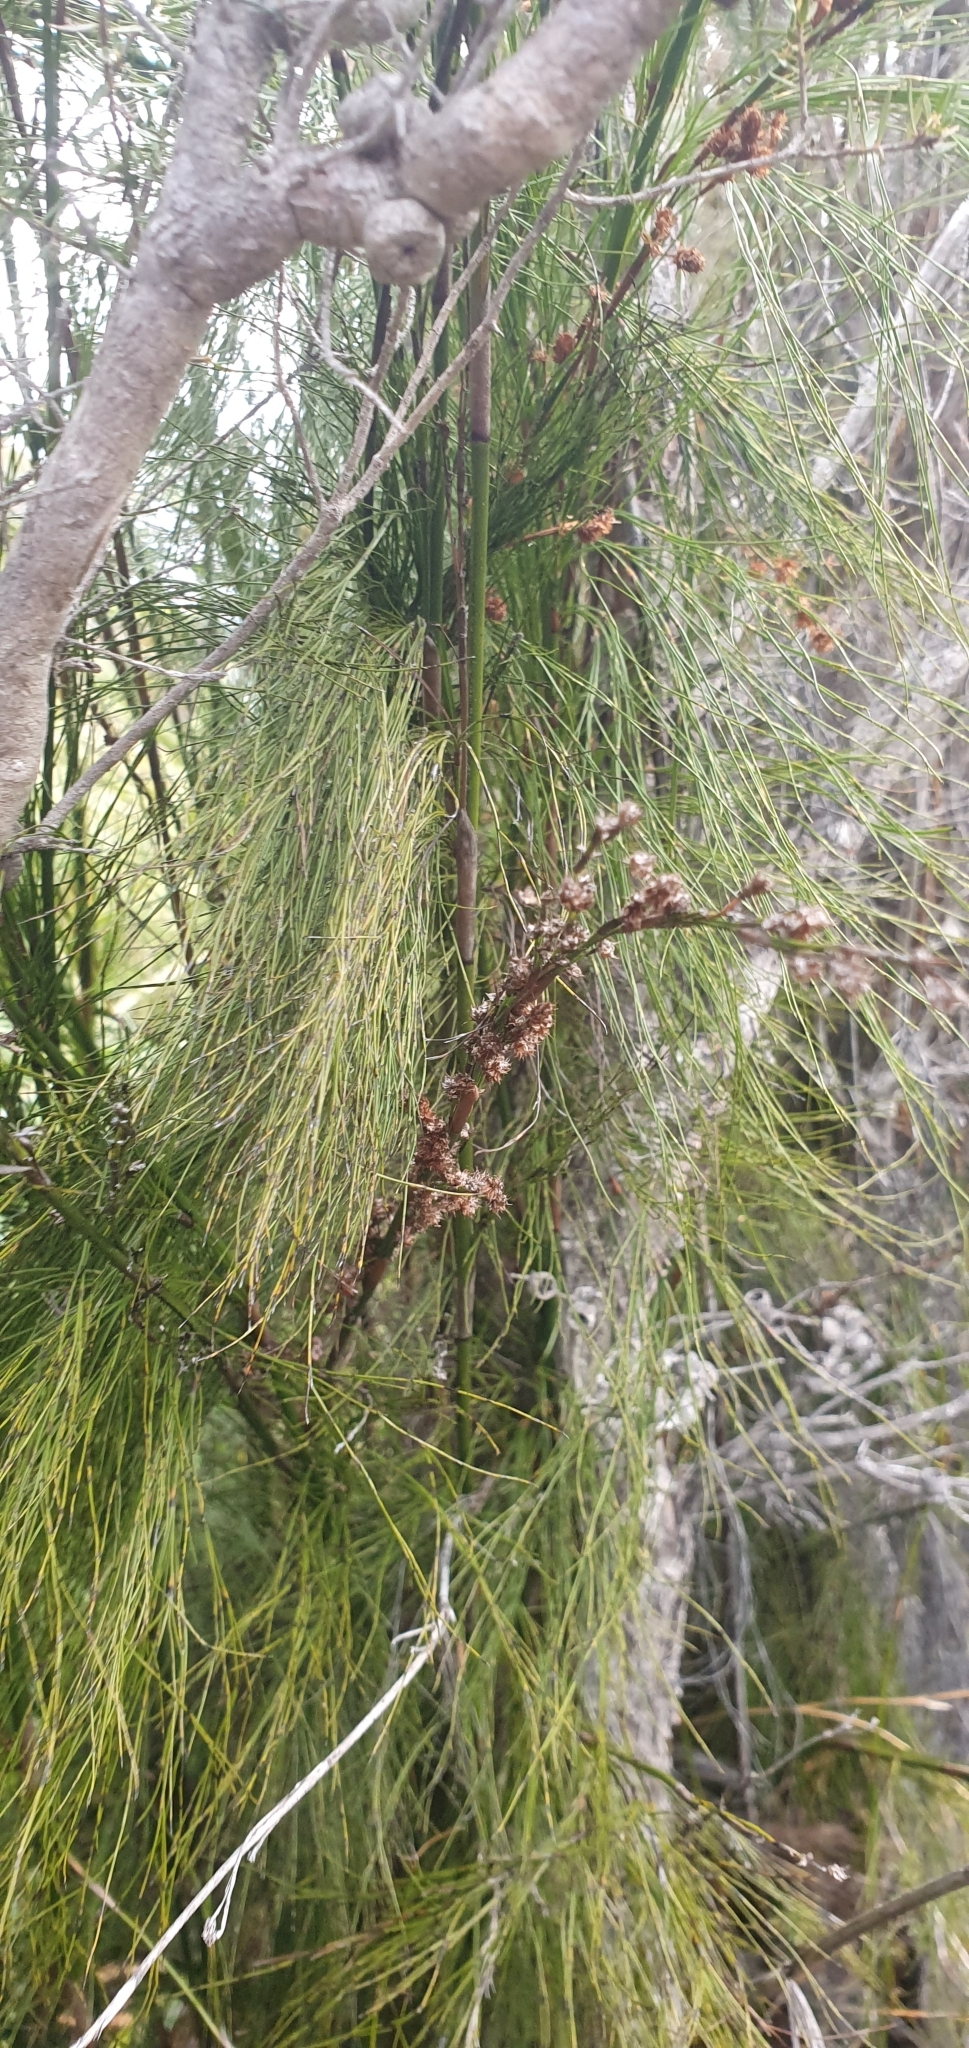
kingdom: Plantae
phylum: Tracheophyta
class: Liliopsida
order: Poales
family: Restionaceae
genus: Baloskion
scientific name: Baloskion tetraphyllum
